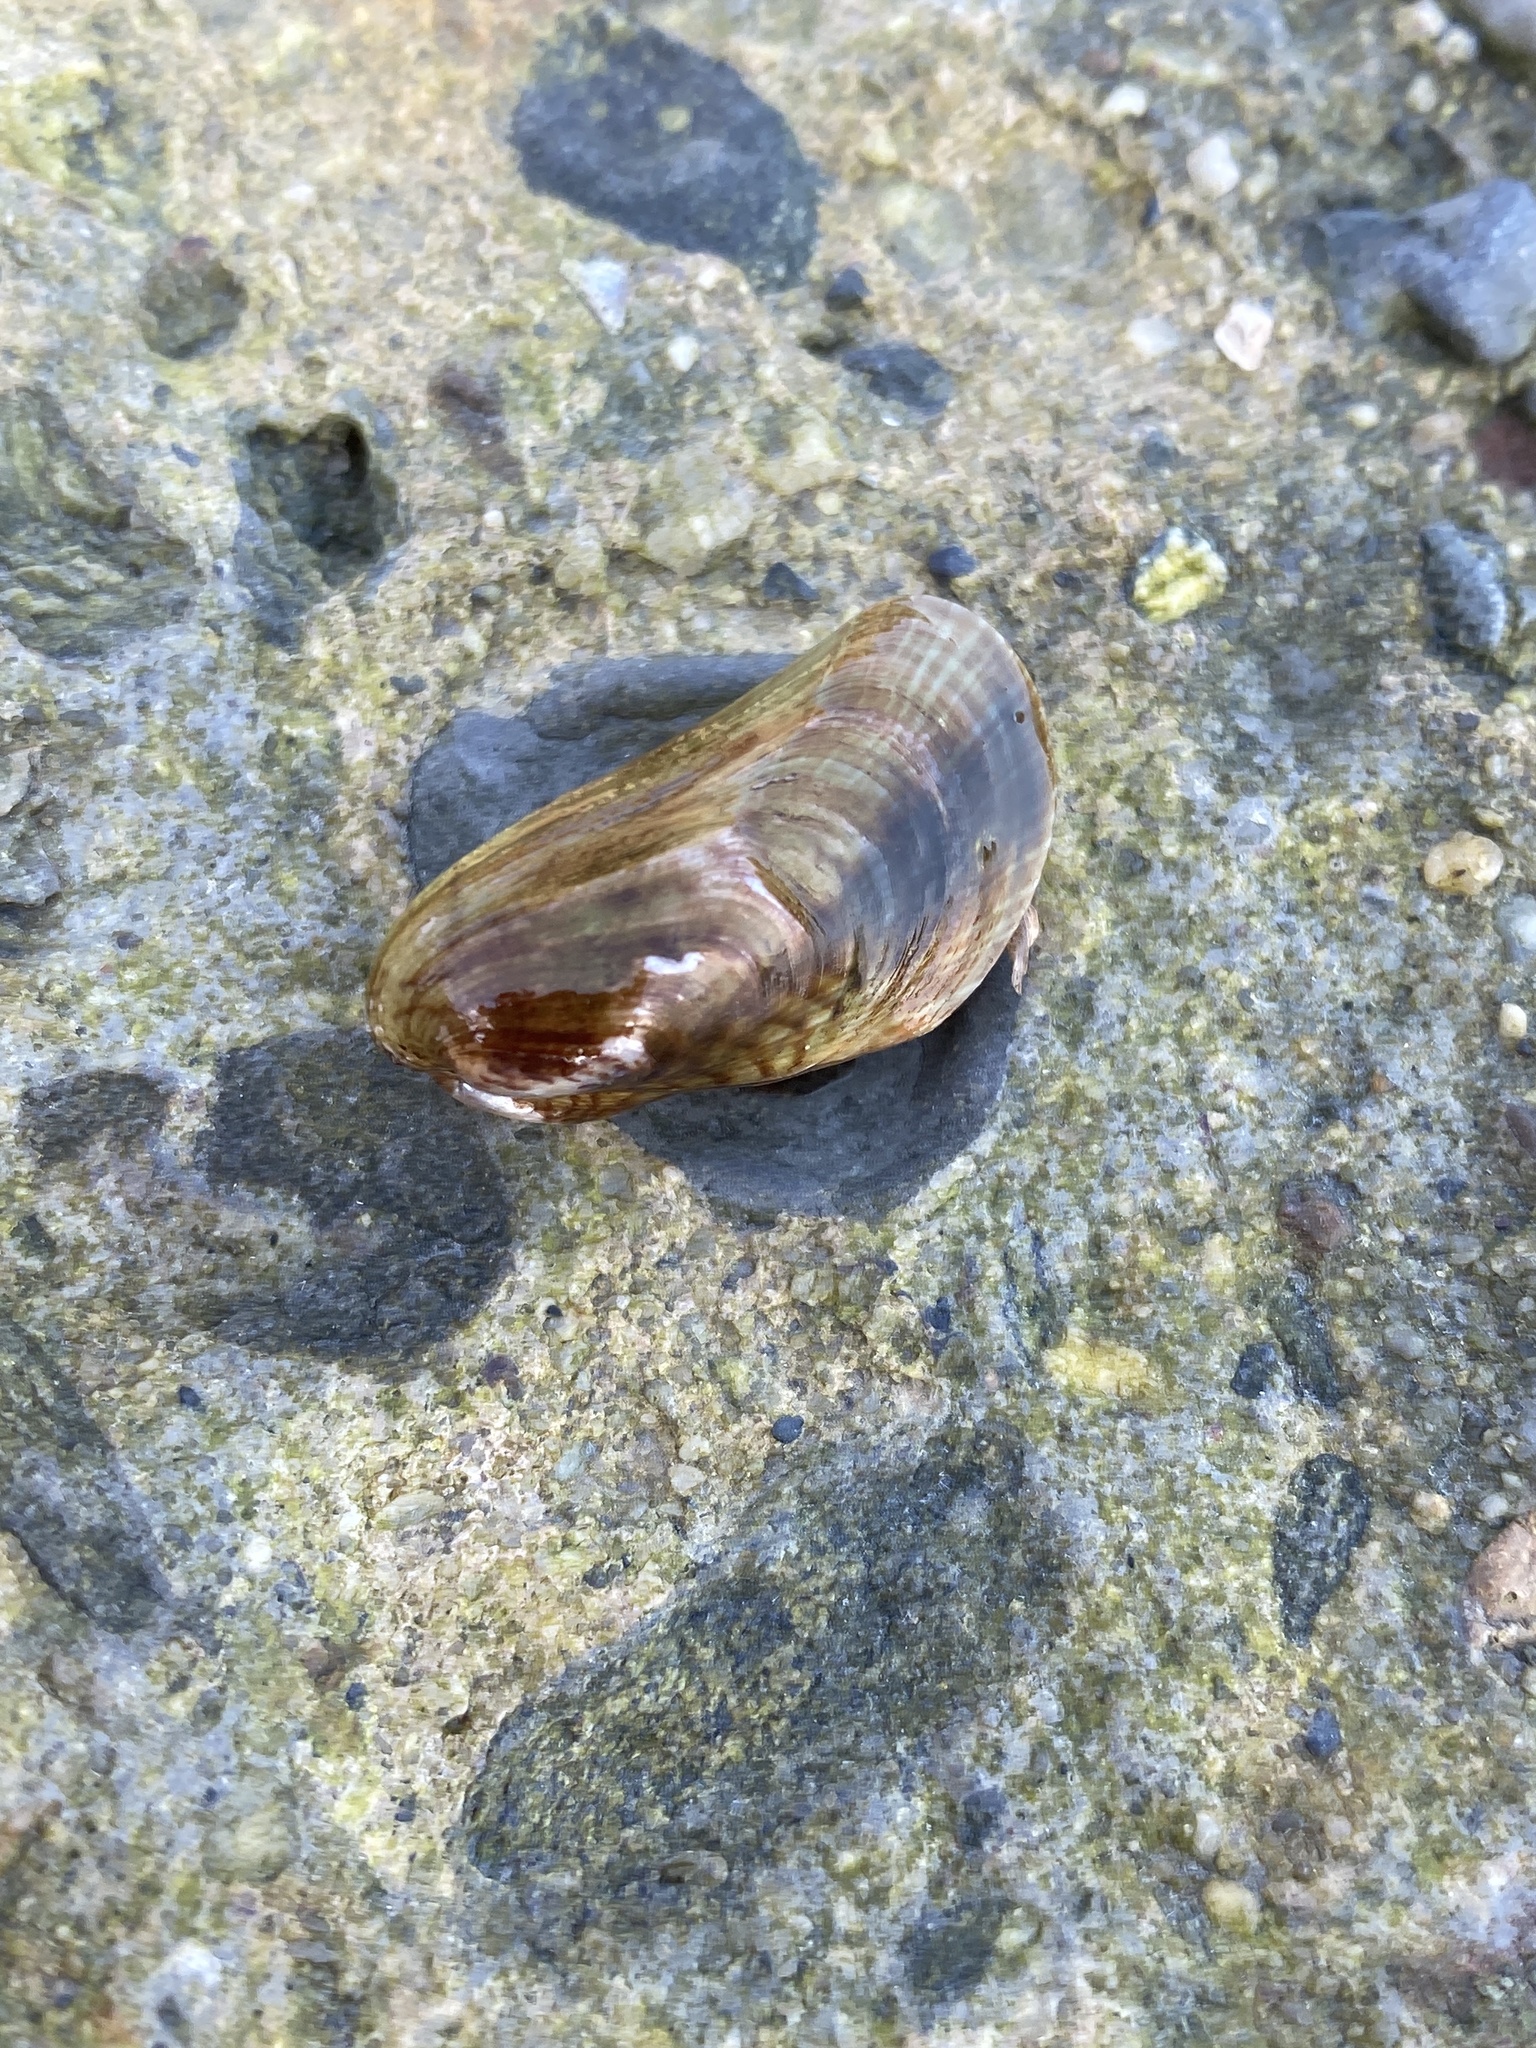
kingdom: Animalia
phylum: Mollusca
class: Bivalvia
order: Mytilida
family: Mytilidae
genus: Arcuatula
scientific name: Arcuatula senhousia
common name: Asian mussel
